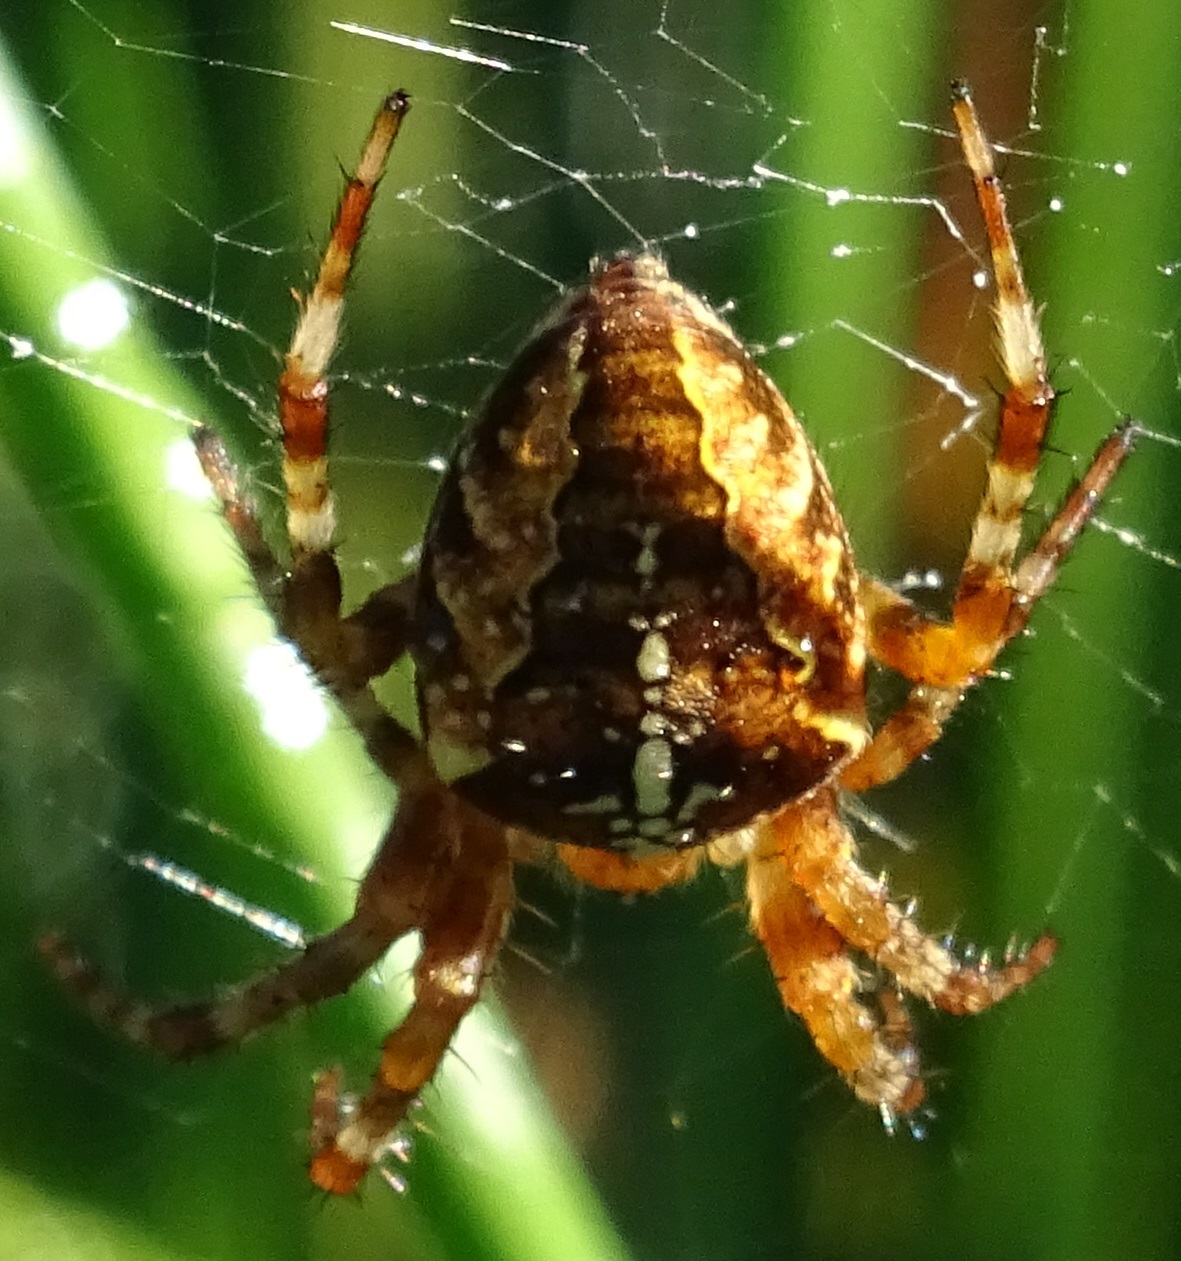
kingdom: Animalia
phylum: Arthropoda
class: Arachnida
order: Araneae
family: Araneidae
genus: Araneus
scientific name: Araneus diadematus
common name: Cross orbweaver
